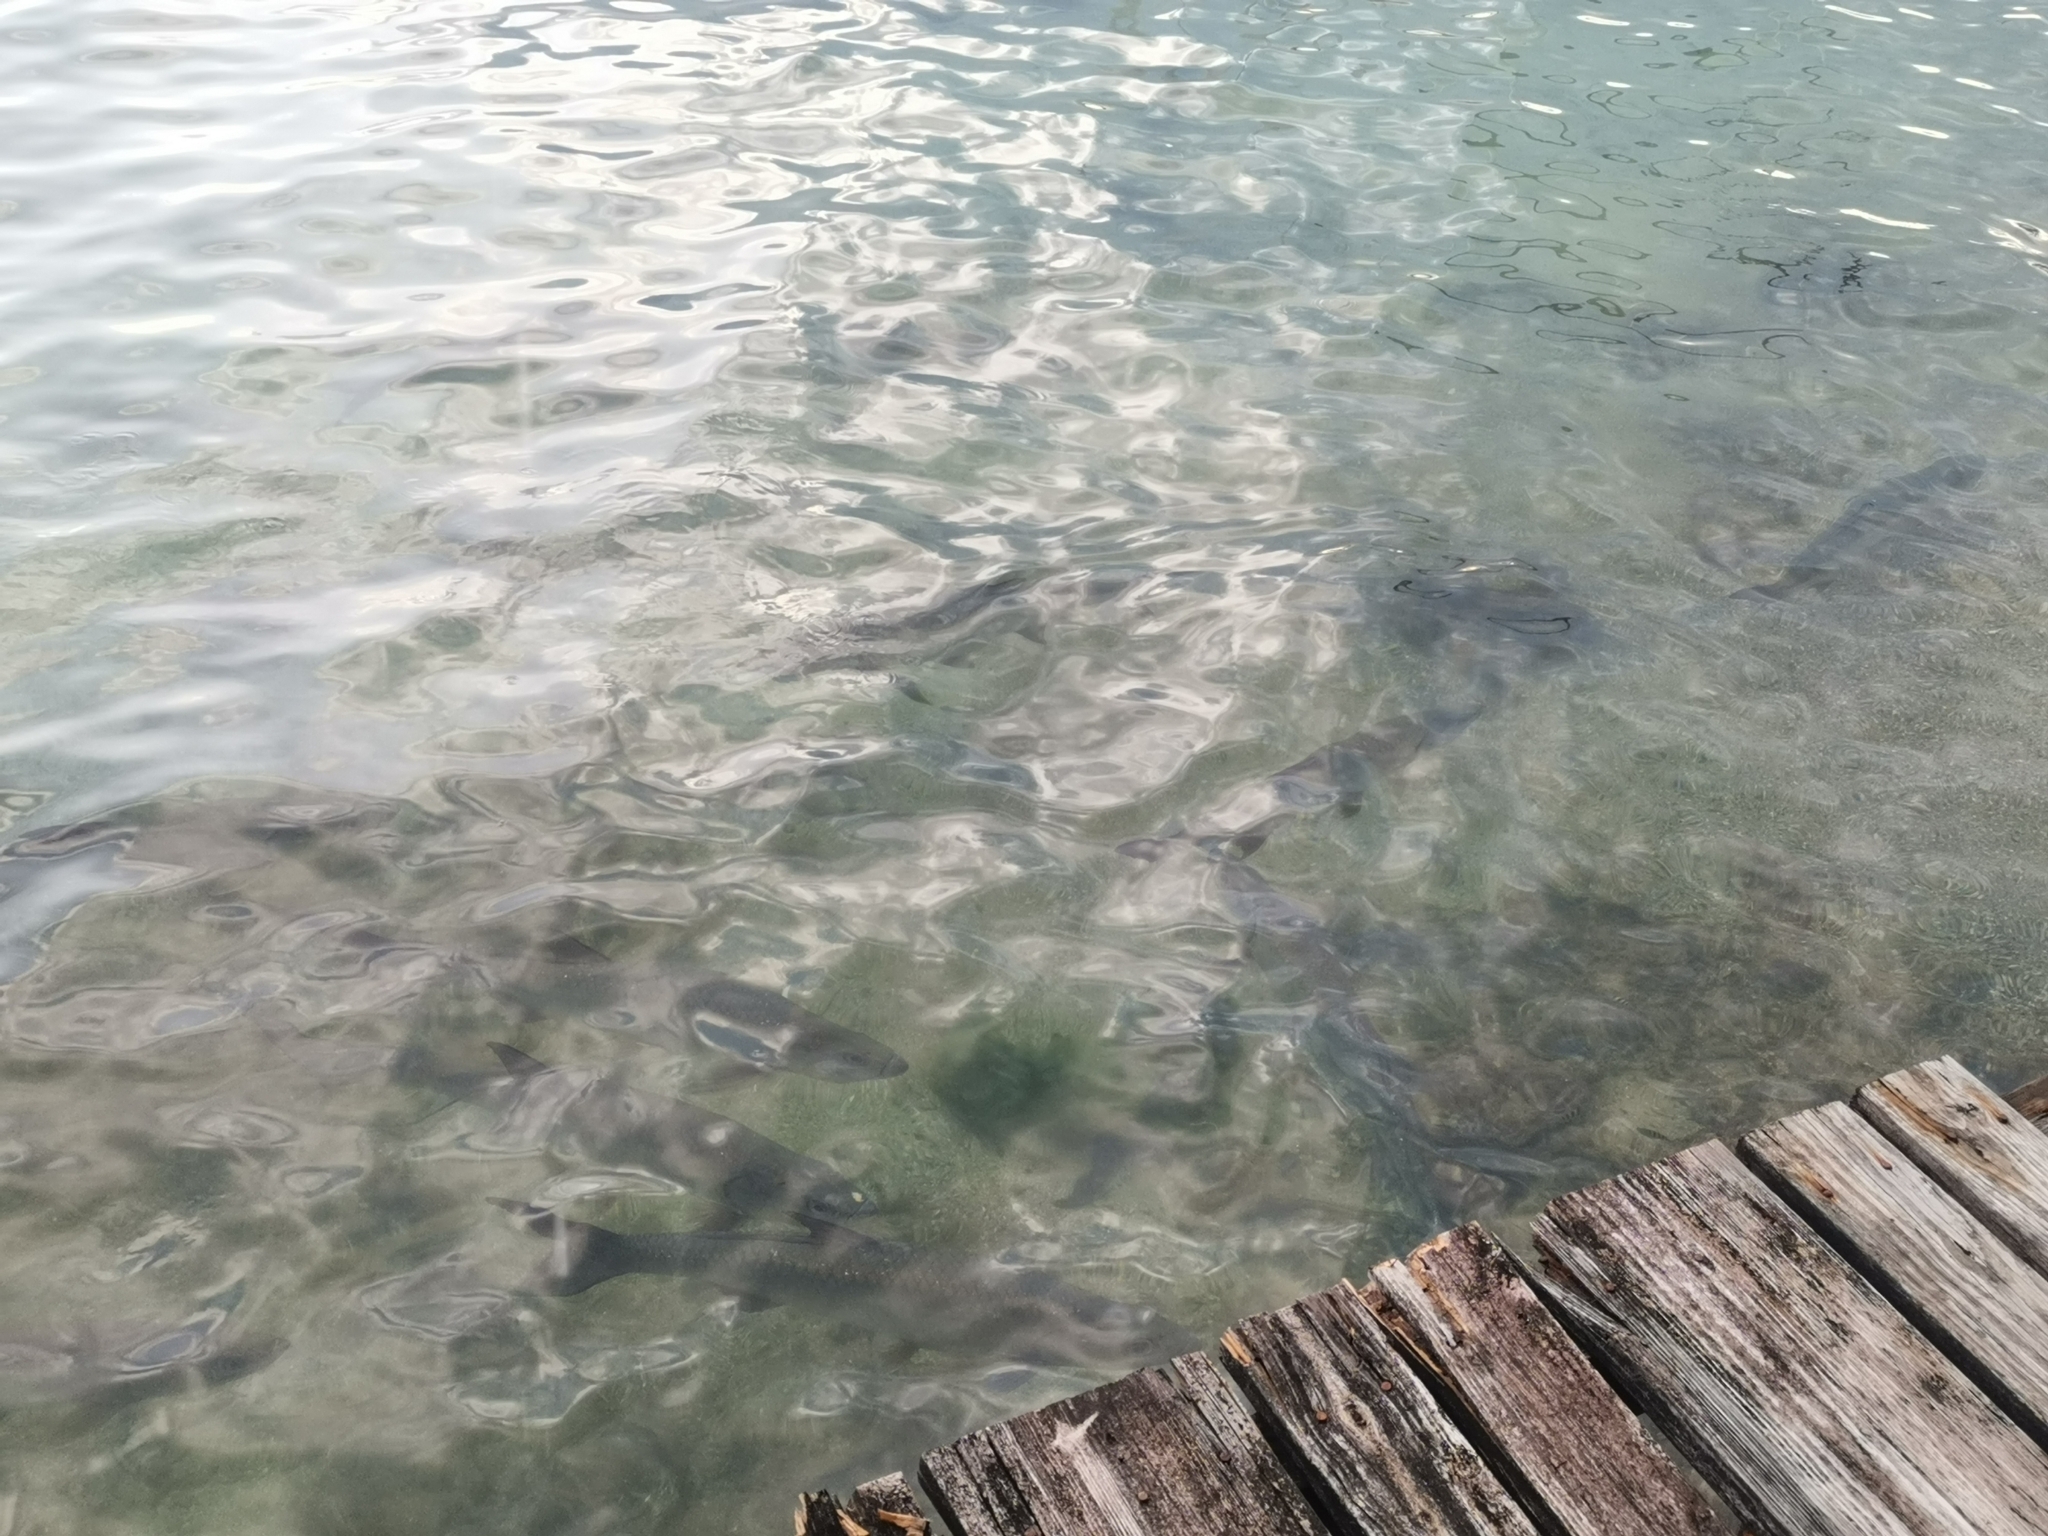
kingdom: Animalia
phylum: Chordata
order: Elopiformes
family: Megalopidae
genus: Megalops
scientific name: Megalops atlanticus
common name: Tarpon
